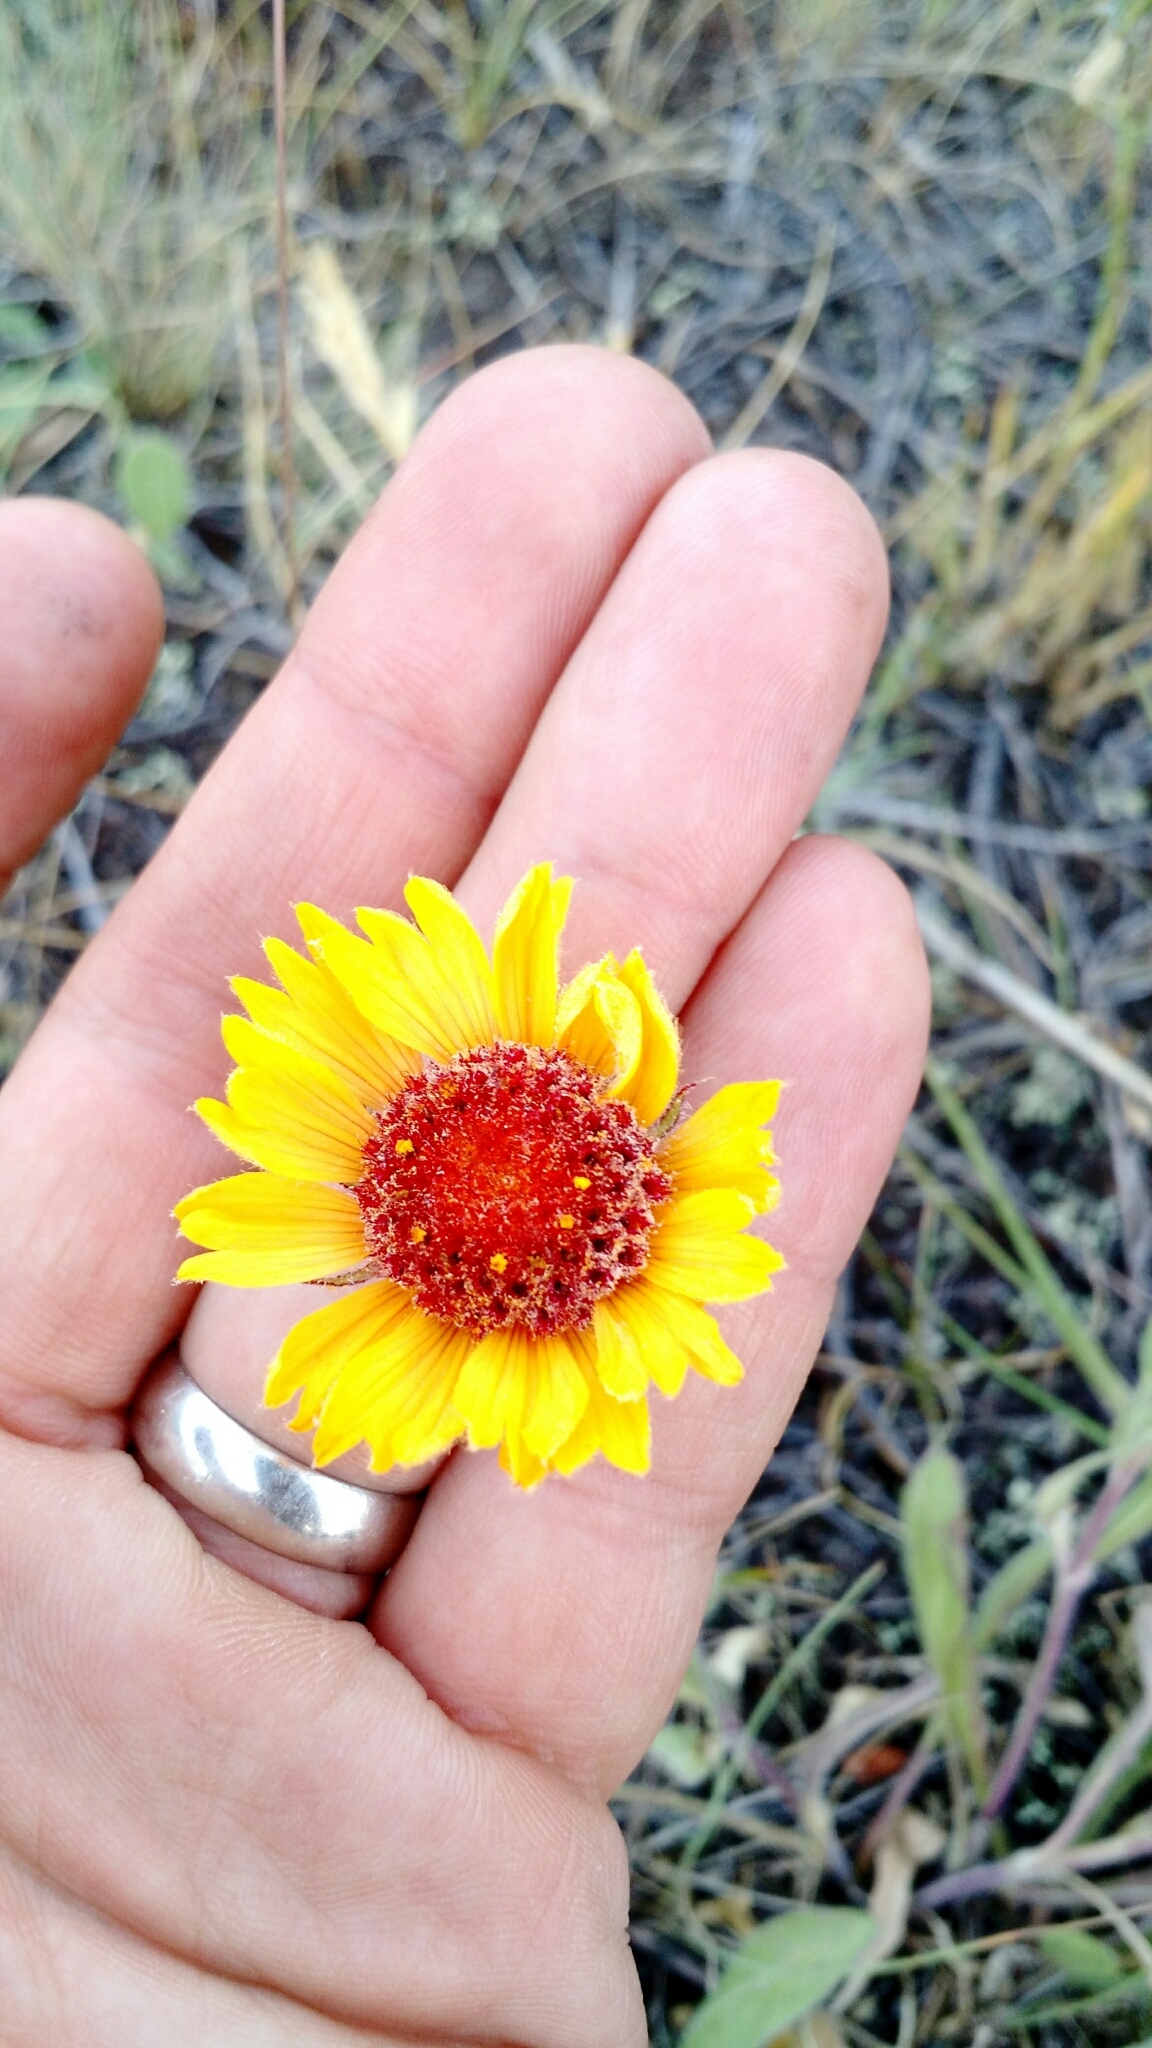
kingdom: Plantae
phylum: Tracheophyta
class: Magnoliopsida
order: Asterales
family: Asteraceae
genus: Gaillardia
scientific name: Gaillardia aristata
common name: Blanket-flower
